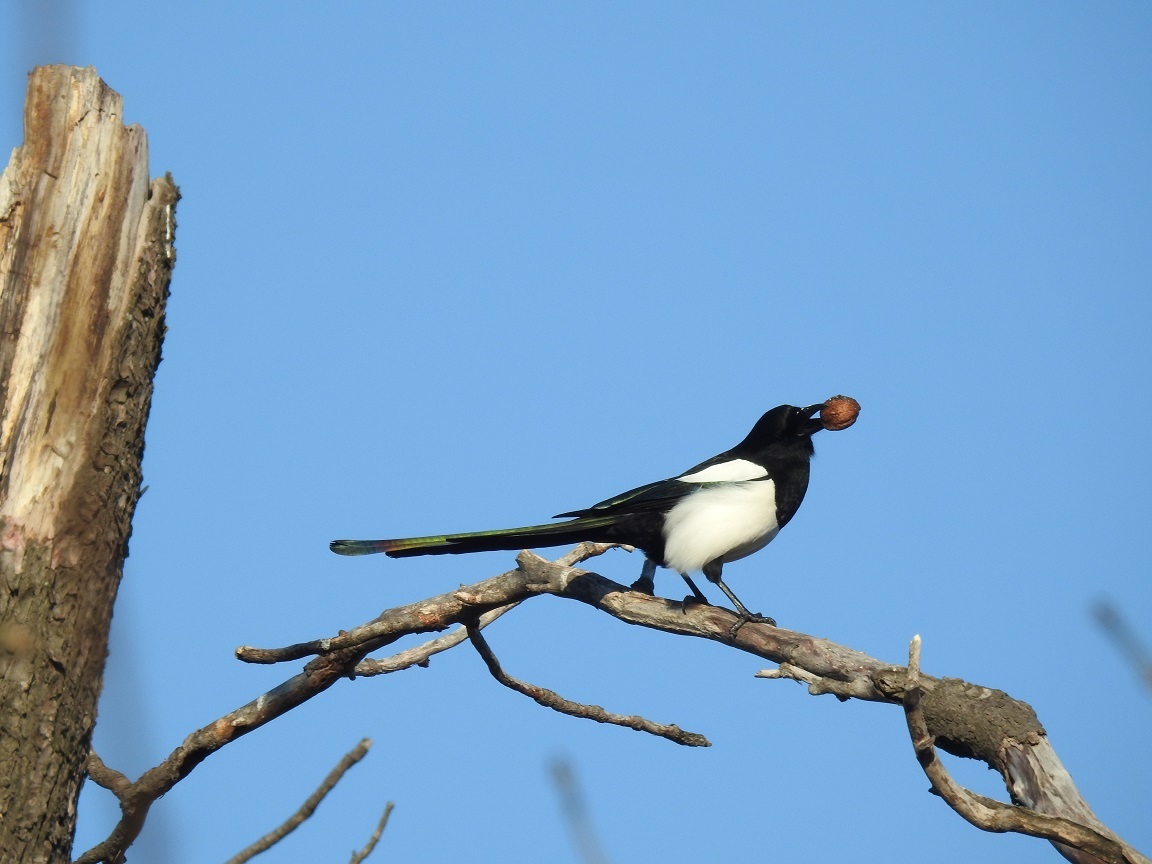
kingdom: Animalia
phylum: Chordata
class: Aves
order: Passeriformes
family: Corvidae
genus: Pica
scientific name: Pica pica
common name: Eurasian magpie
